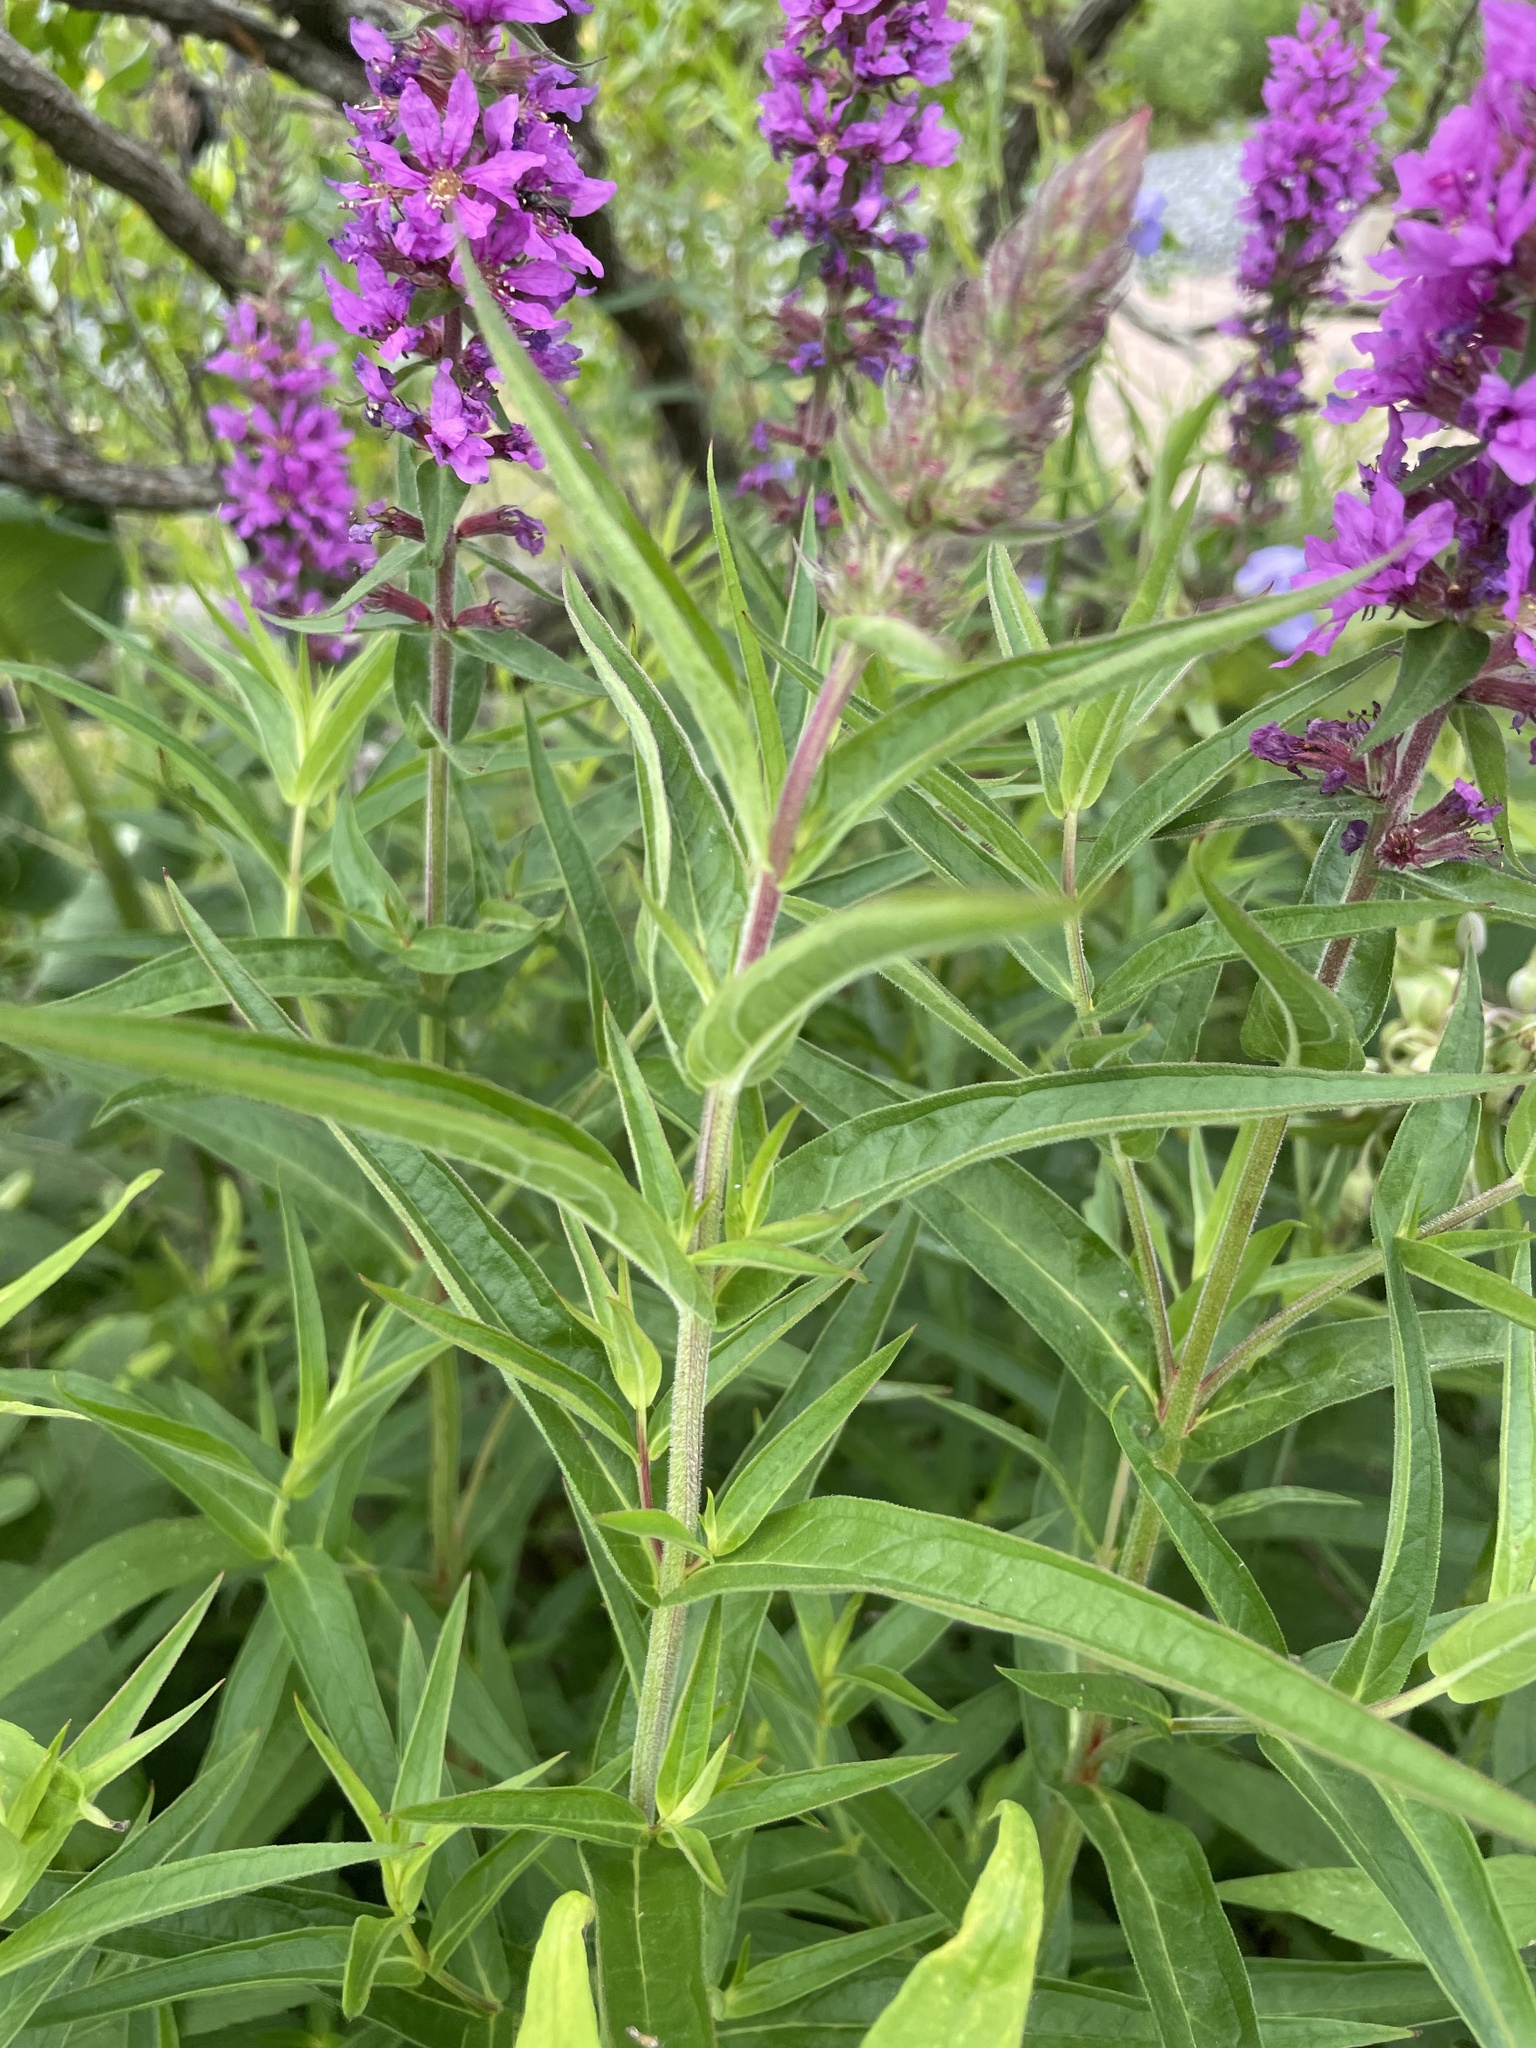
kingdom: Plantae
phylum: Tracheophyta
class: Magnoliopsida
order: Myrtales
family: Lythraceae
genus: Lythrum
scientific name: Lythrum salicaria
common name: Purple loosestrife
